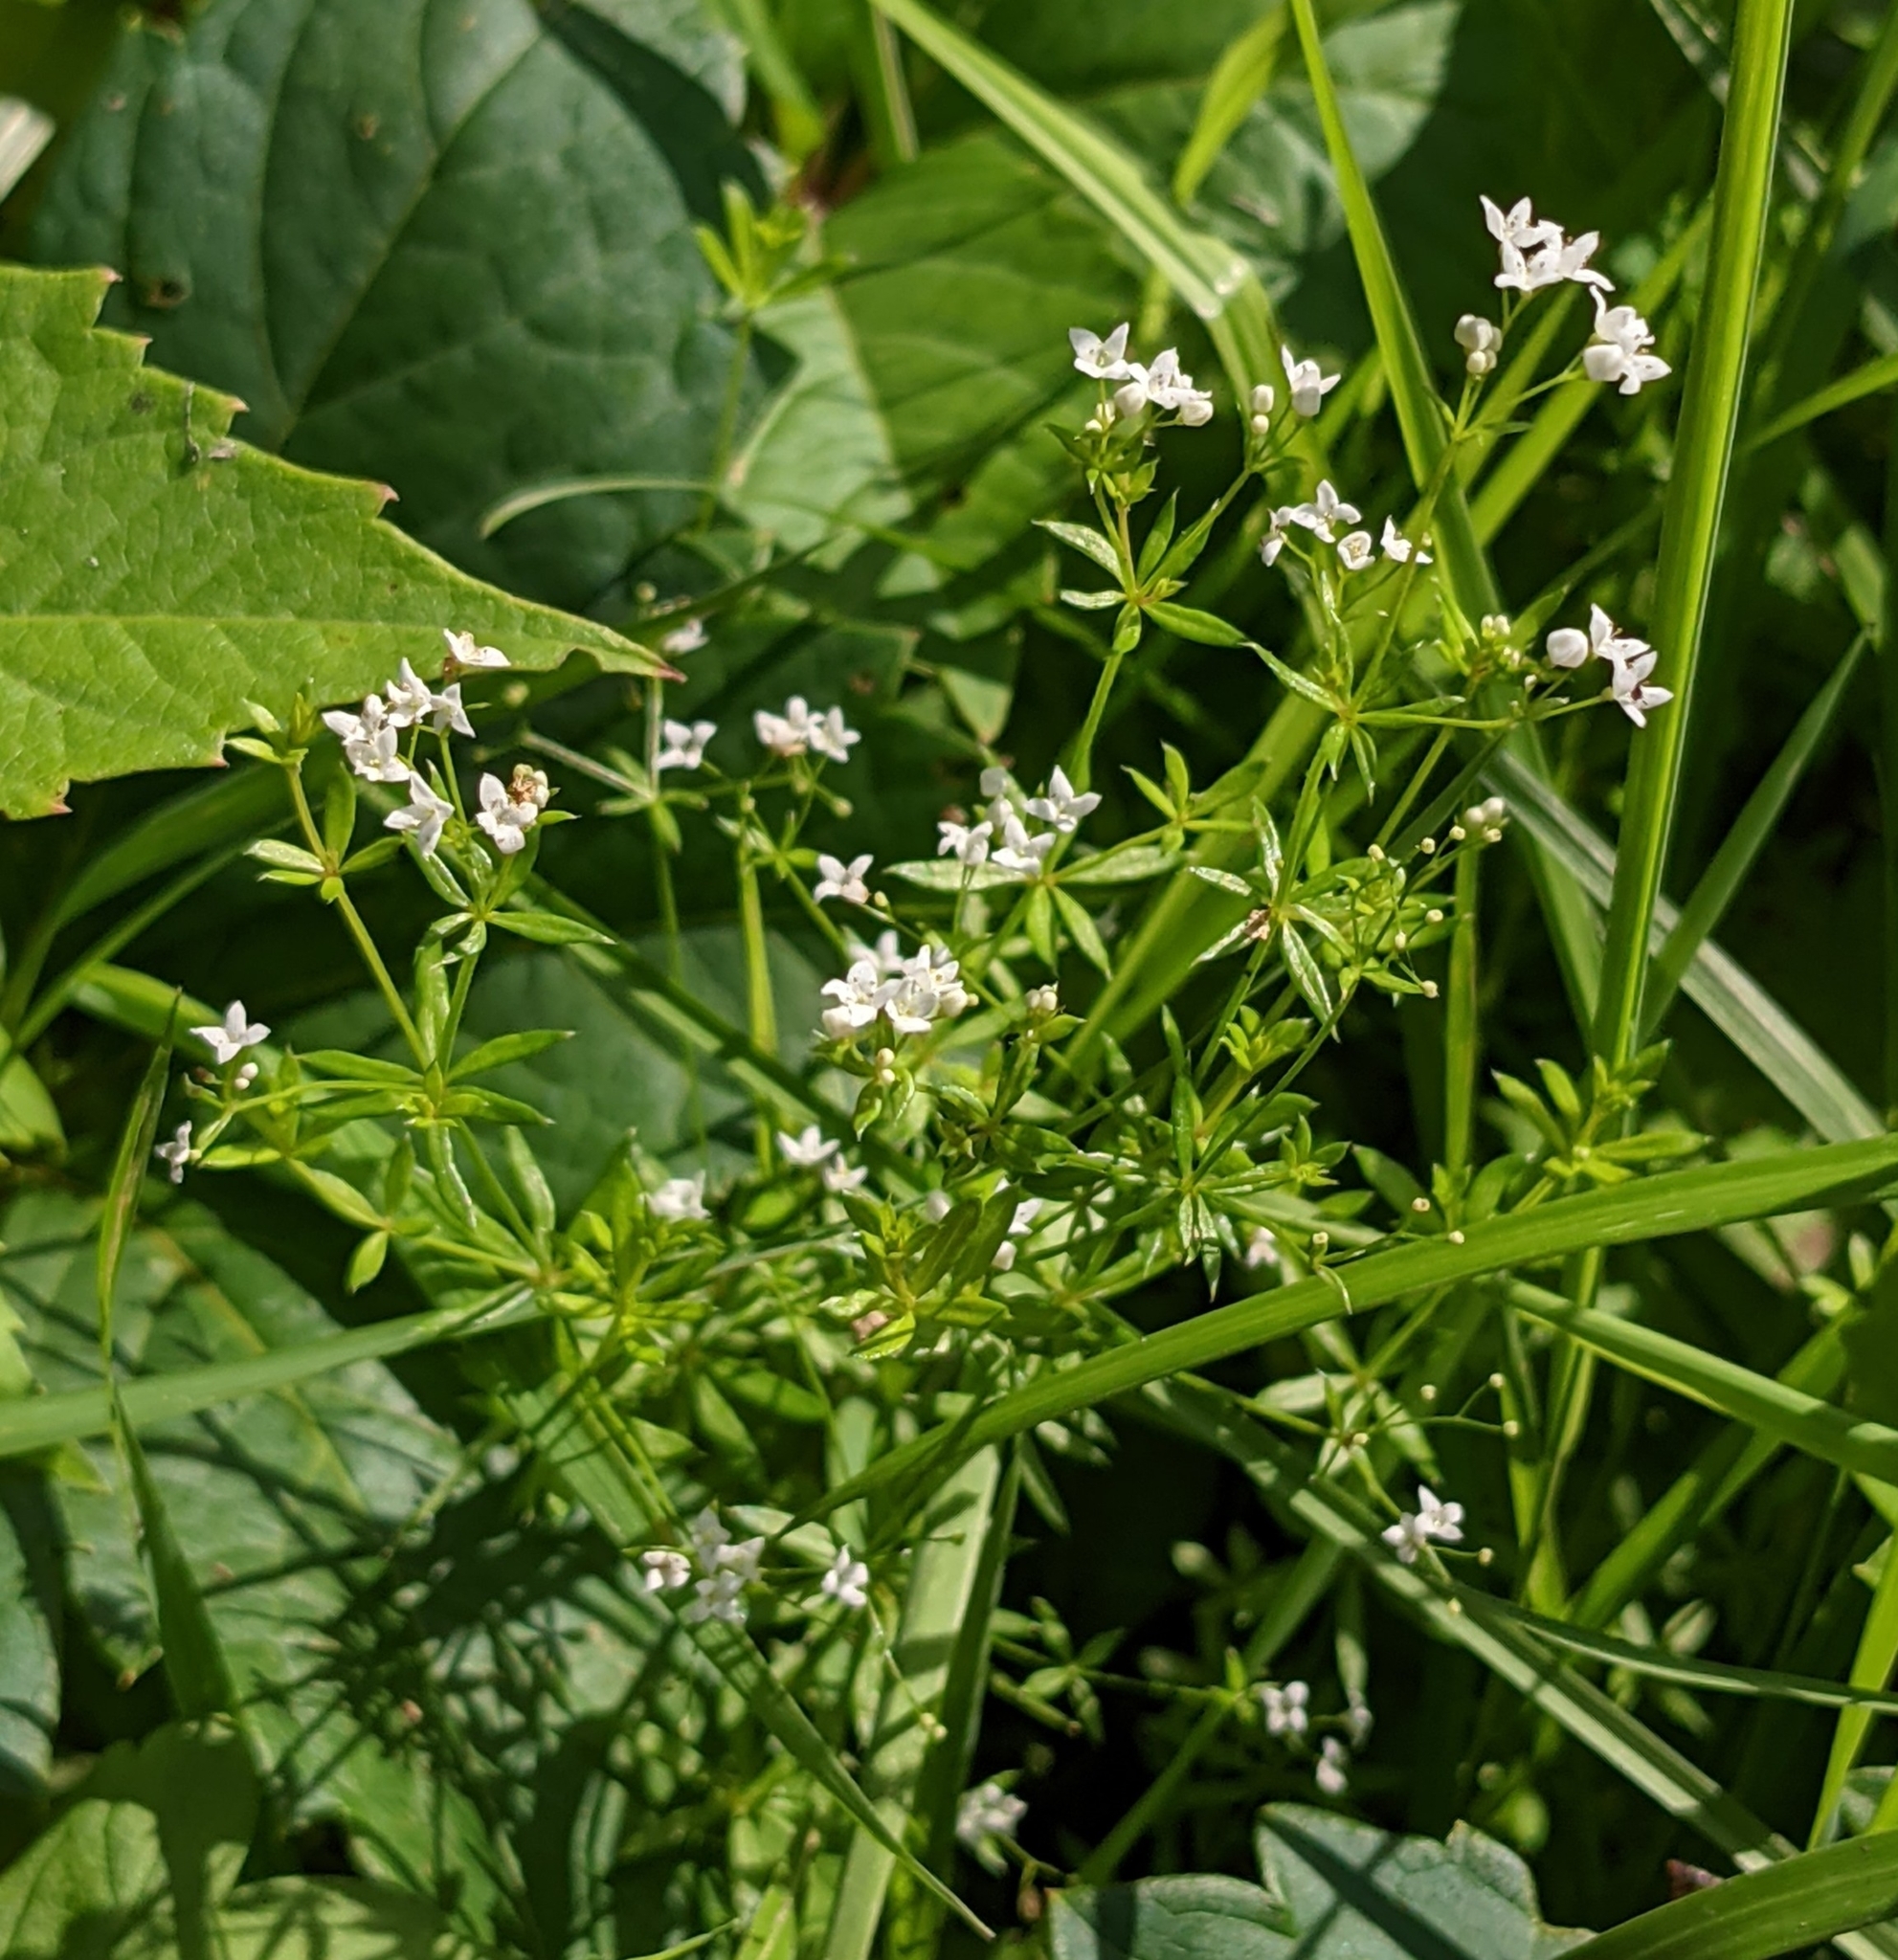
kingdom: Plantae
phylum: Tracheophyta
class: Magnoliopsida
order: Gentianales
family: Rubiaceae
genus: Galium
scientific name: Galium uliginosum
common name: Fen bedstraw
